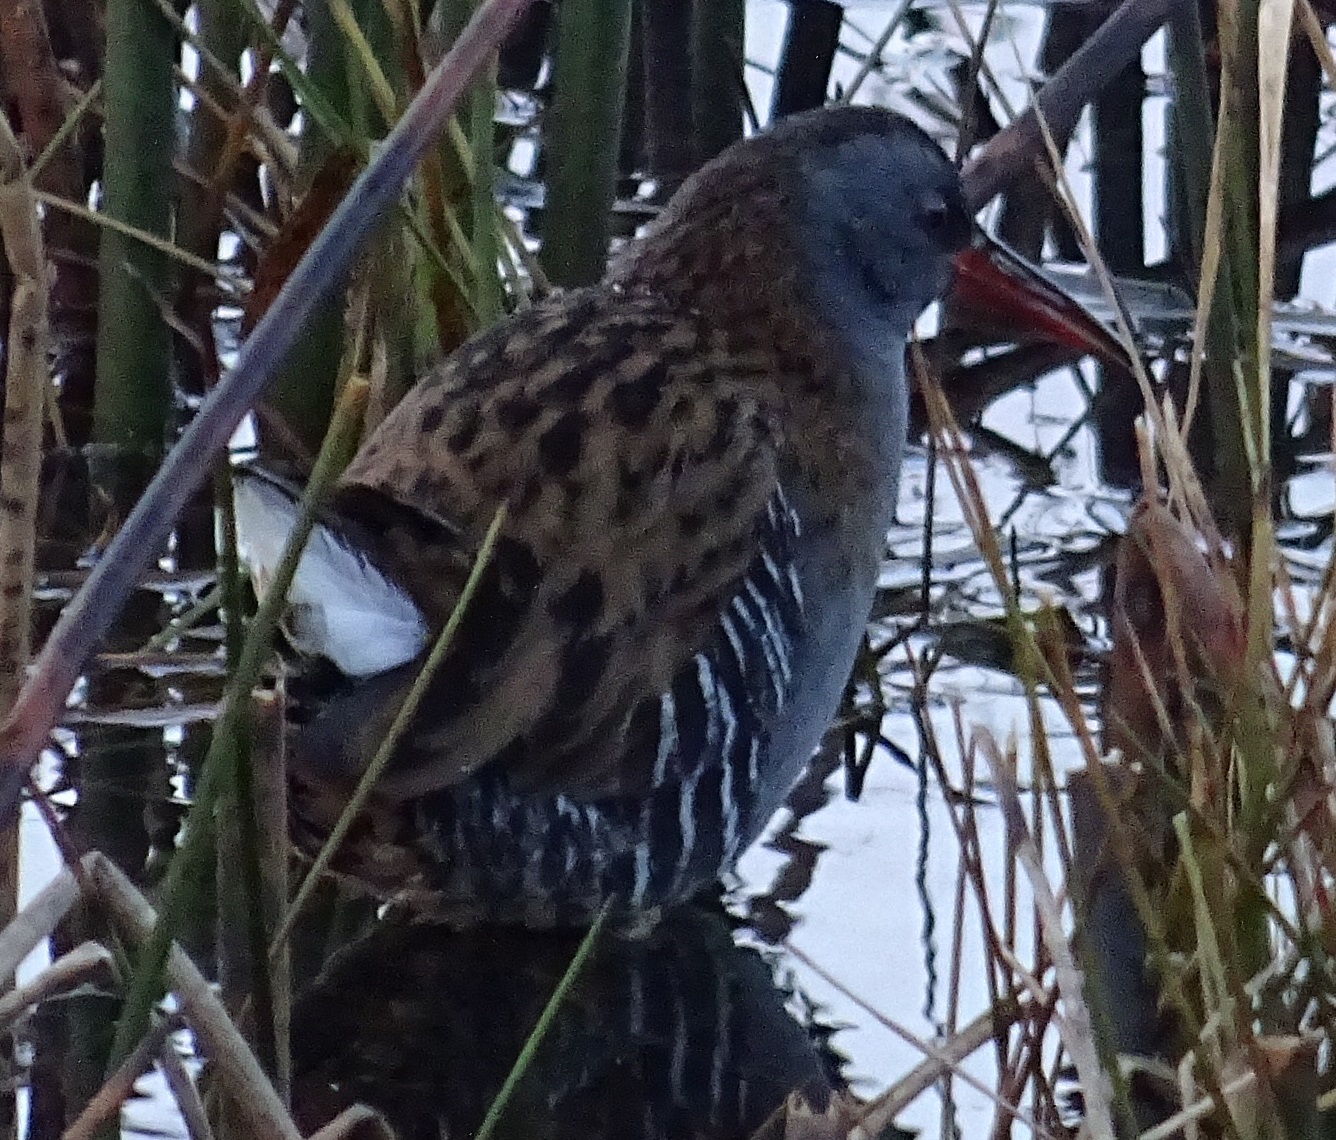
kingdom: Animalia
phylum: Chordata
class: Aves
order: Gruiformes
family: Rallidae
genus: Rallus
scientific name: Rallus aquaticus
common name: Water rail
